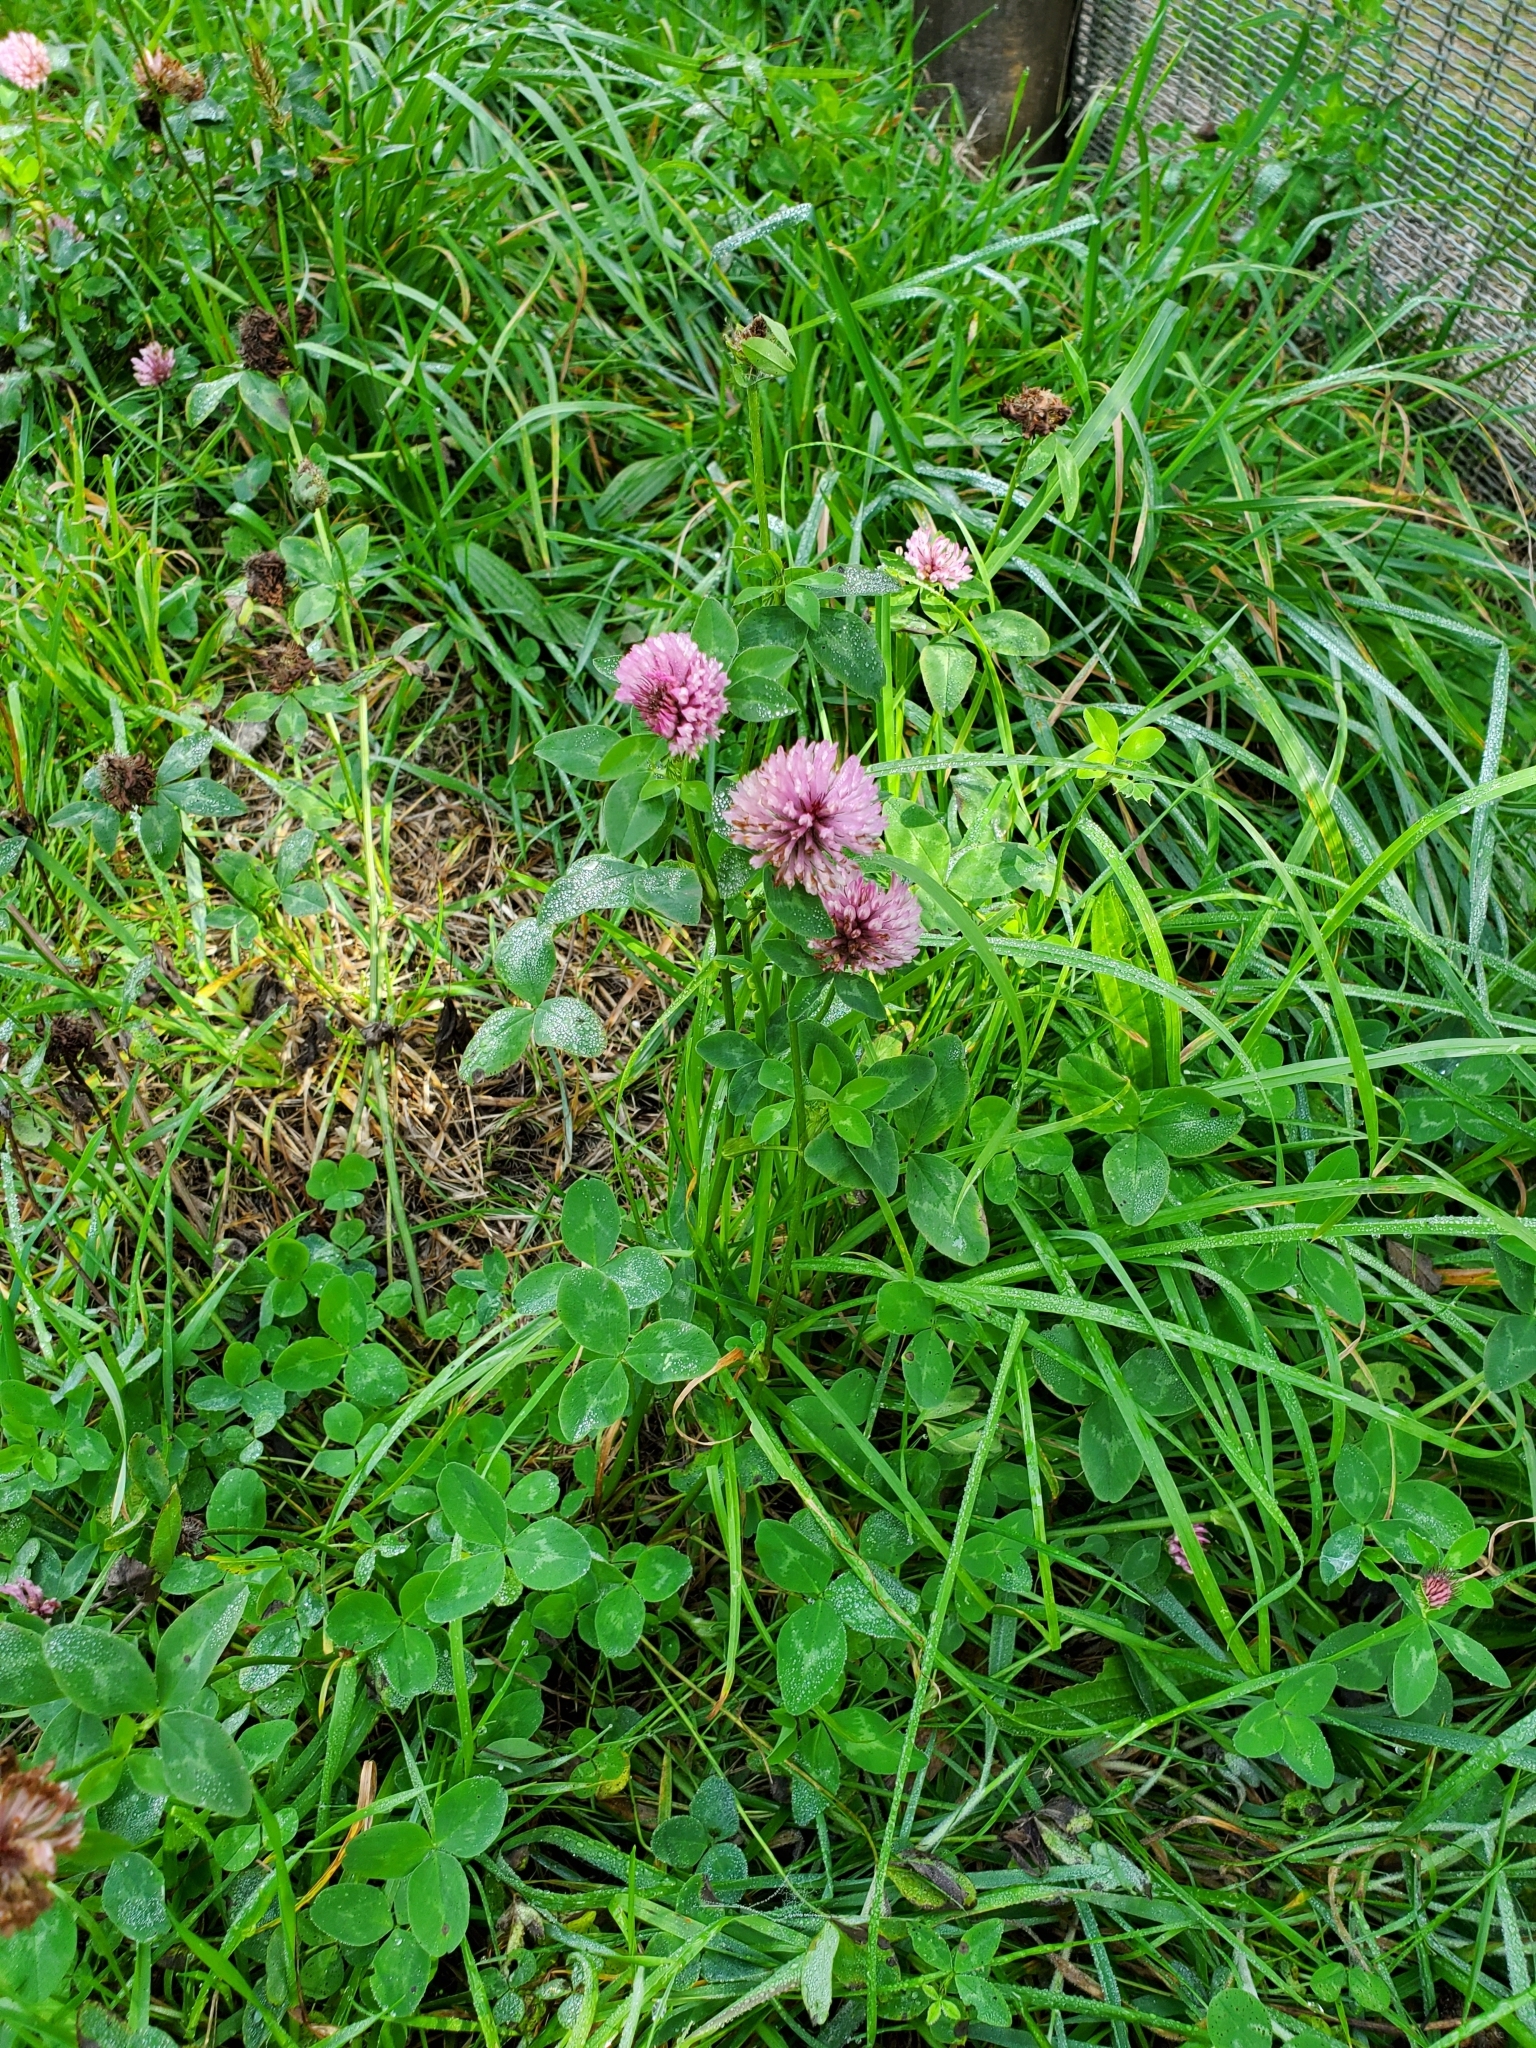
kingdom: Plantae
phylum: Tracheophyta
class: Magnoliopsida
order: Fabales
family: Fabaceae
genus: Trifolium
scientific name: Trifolium pratense
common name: Red clover
